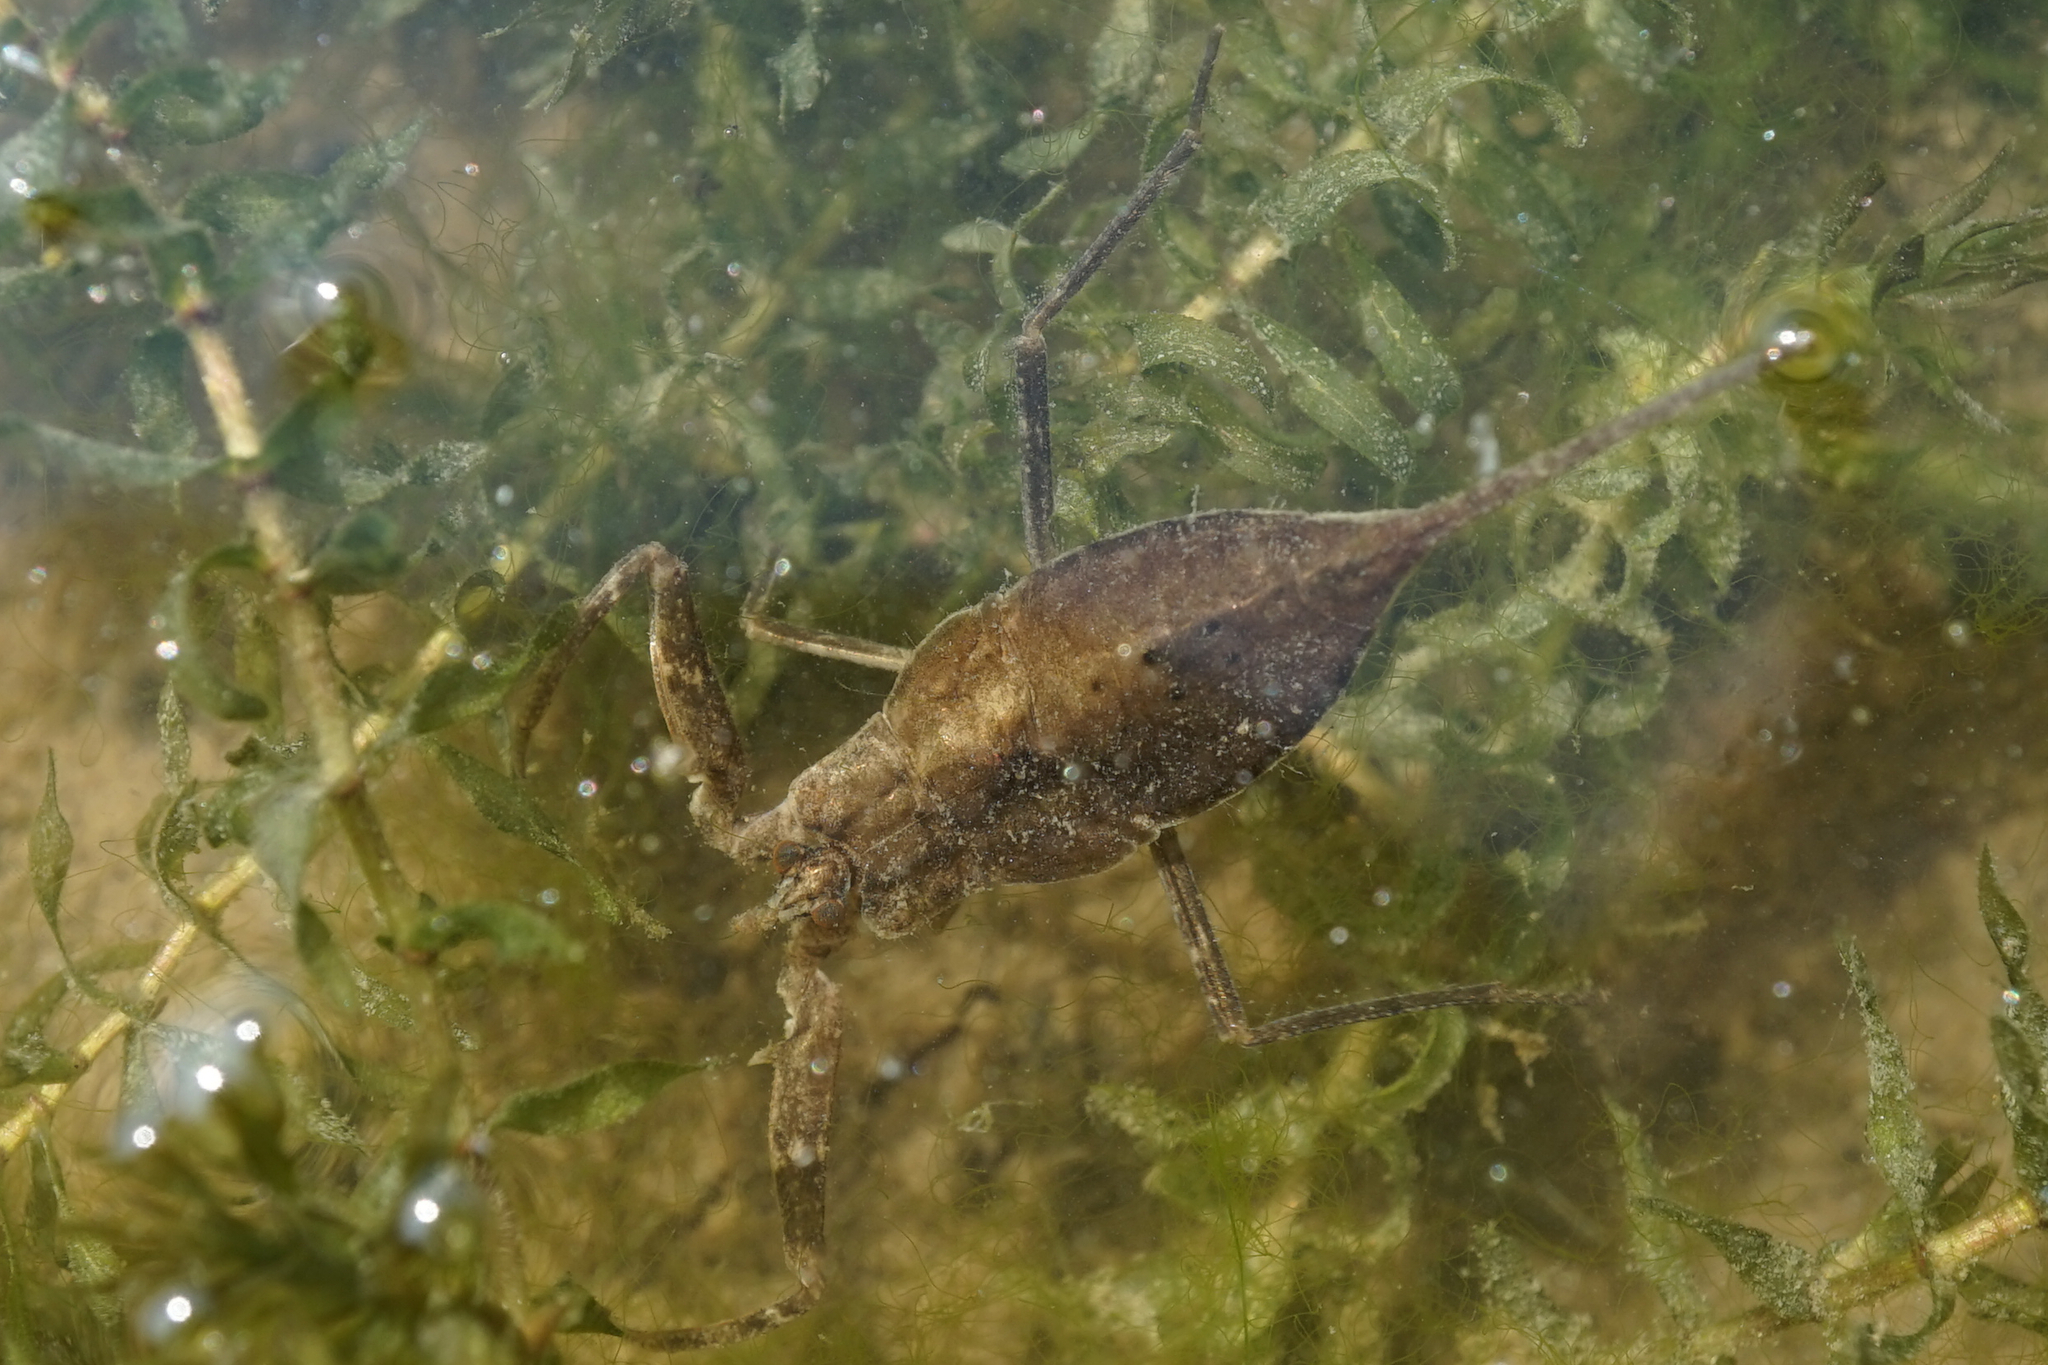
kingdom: Animalia
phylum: Arthropoda
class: Insecta
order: Hemiptera
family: Nepidae
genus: Laccotrephes
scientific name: Laccotrephes japonensis
